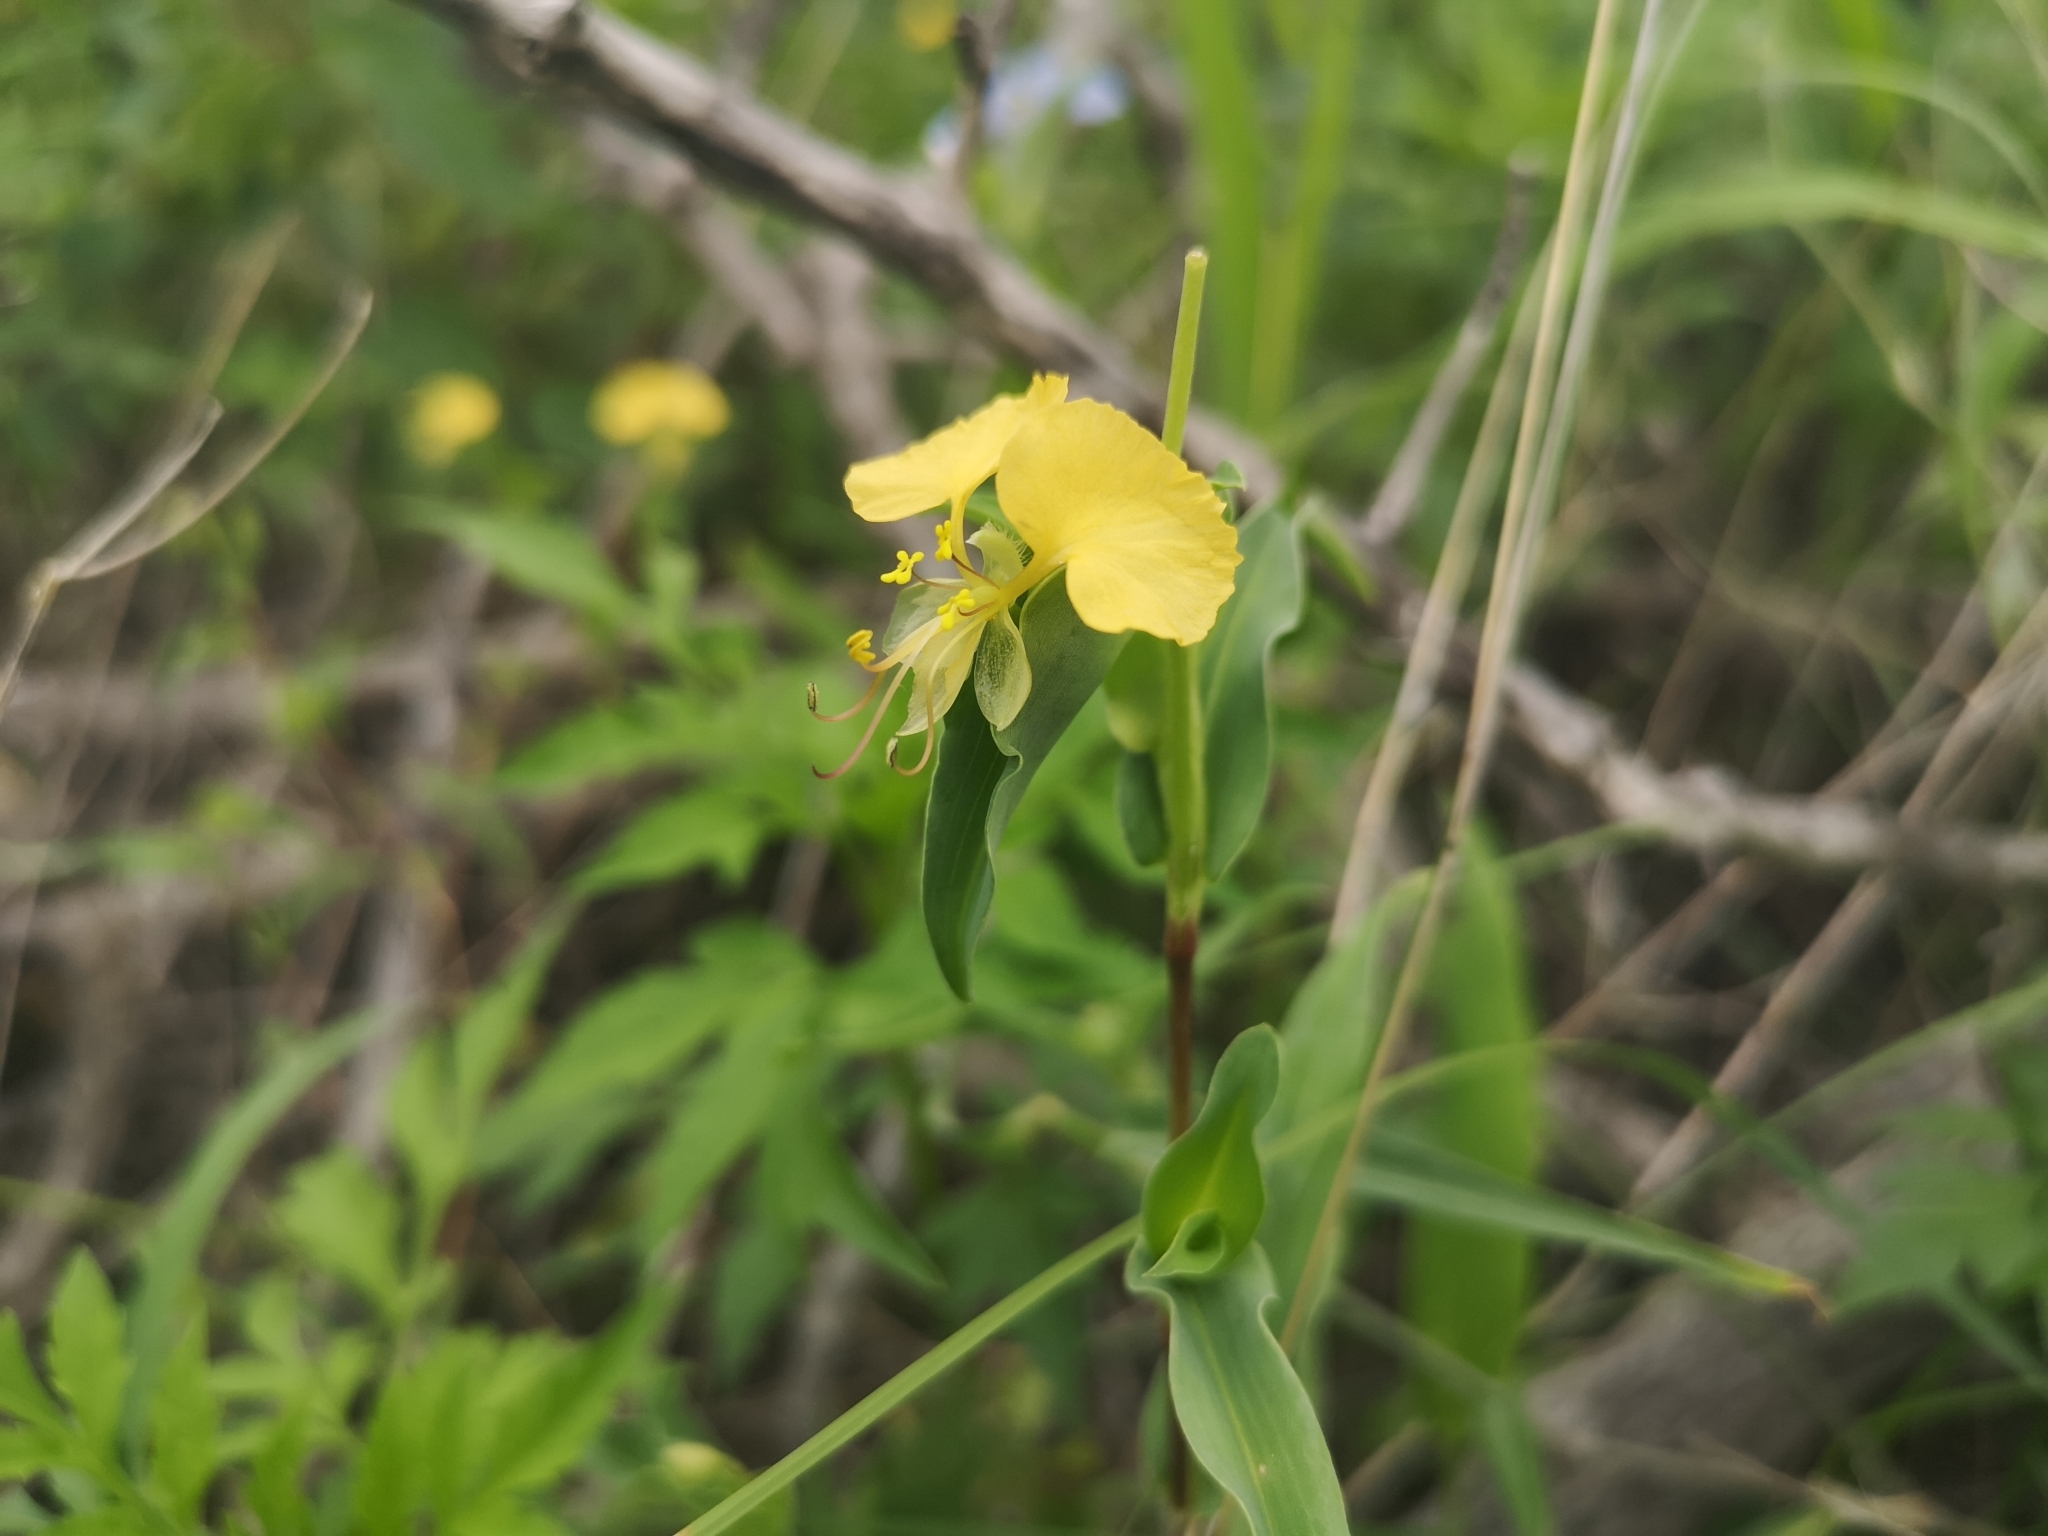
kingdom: Plantae
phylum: Tracheophyta
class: Liliopsida
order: Commelinales
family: Commelinaceae
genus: Commelina
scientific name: Commelina africana
